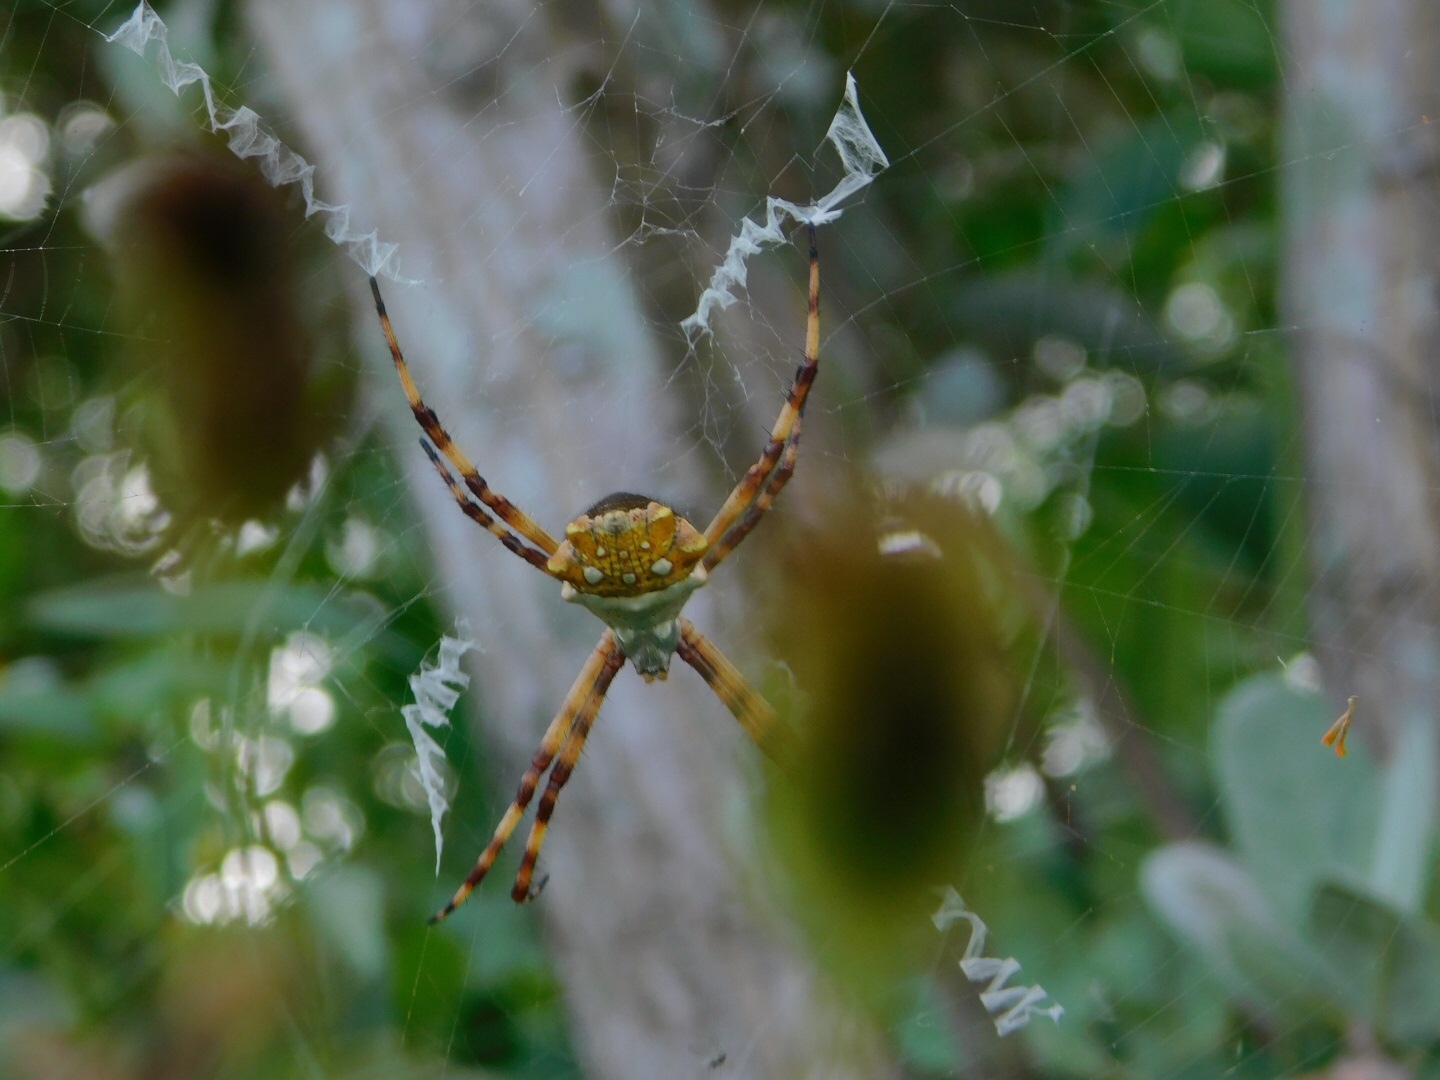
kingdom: Animalia
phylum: Arthropoda
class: Arachnida
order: Araneae
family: Araneidae
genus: Argiope
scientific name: Argiope argentata
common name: Orb weavers
